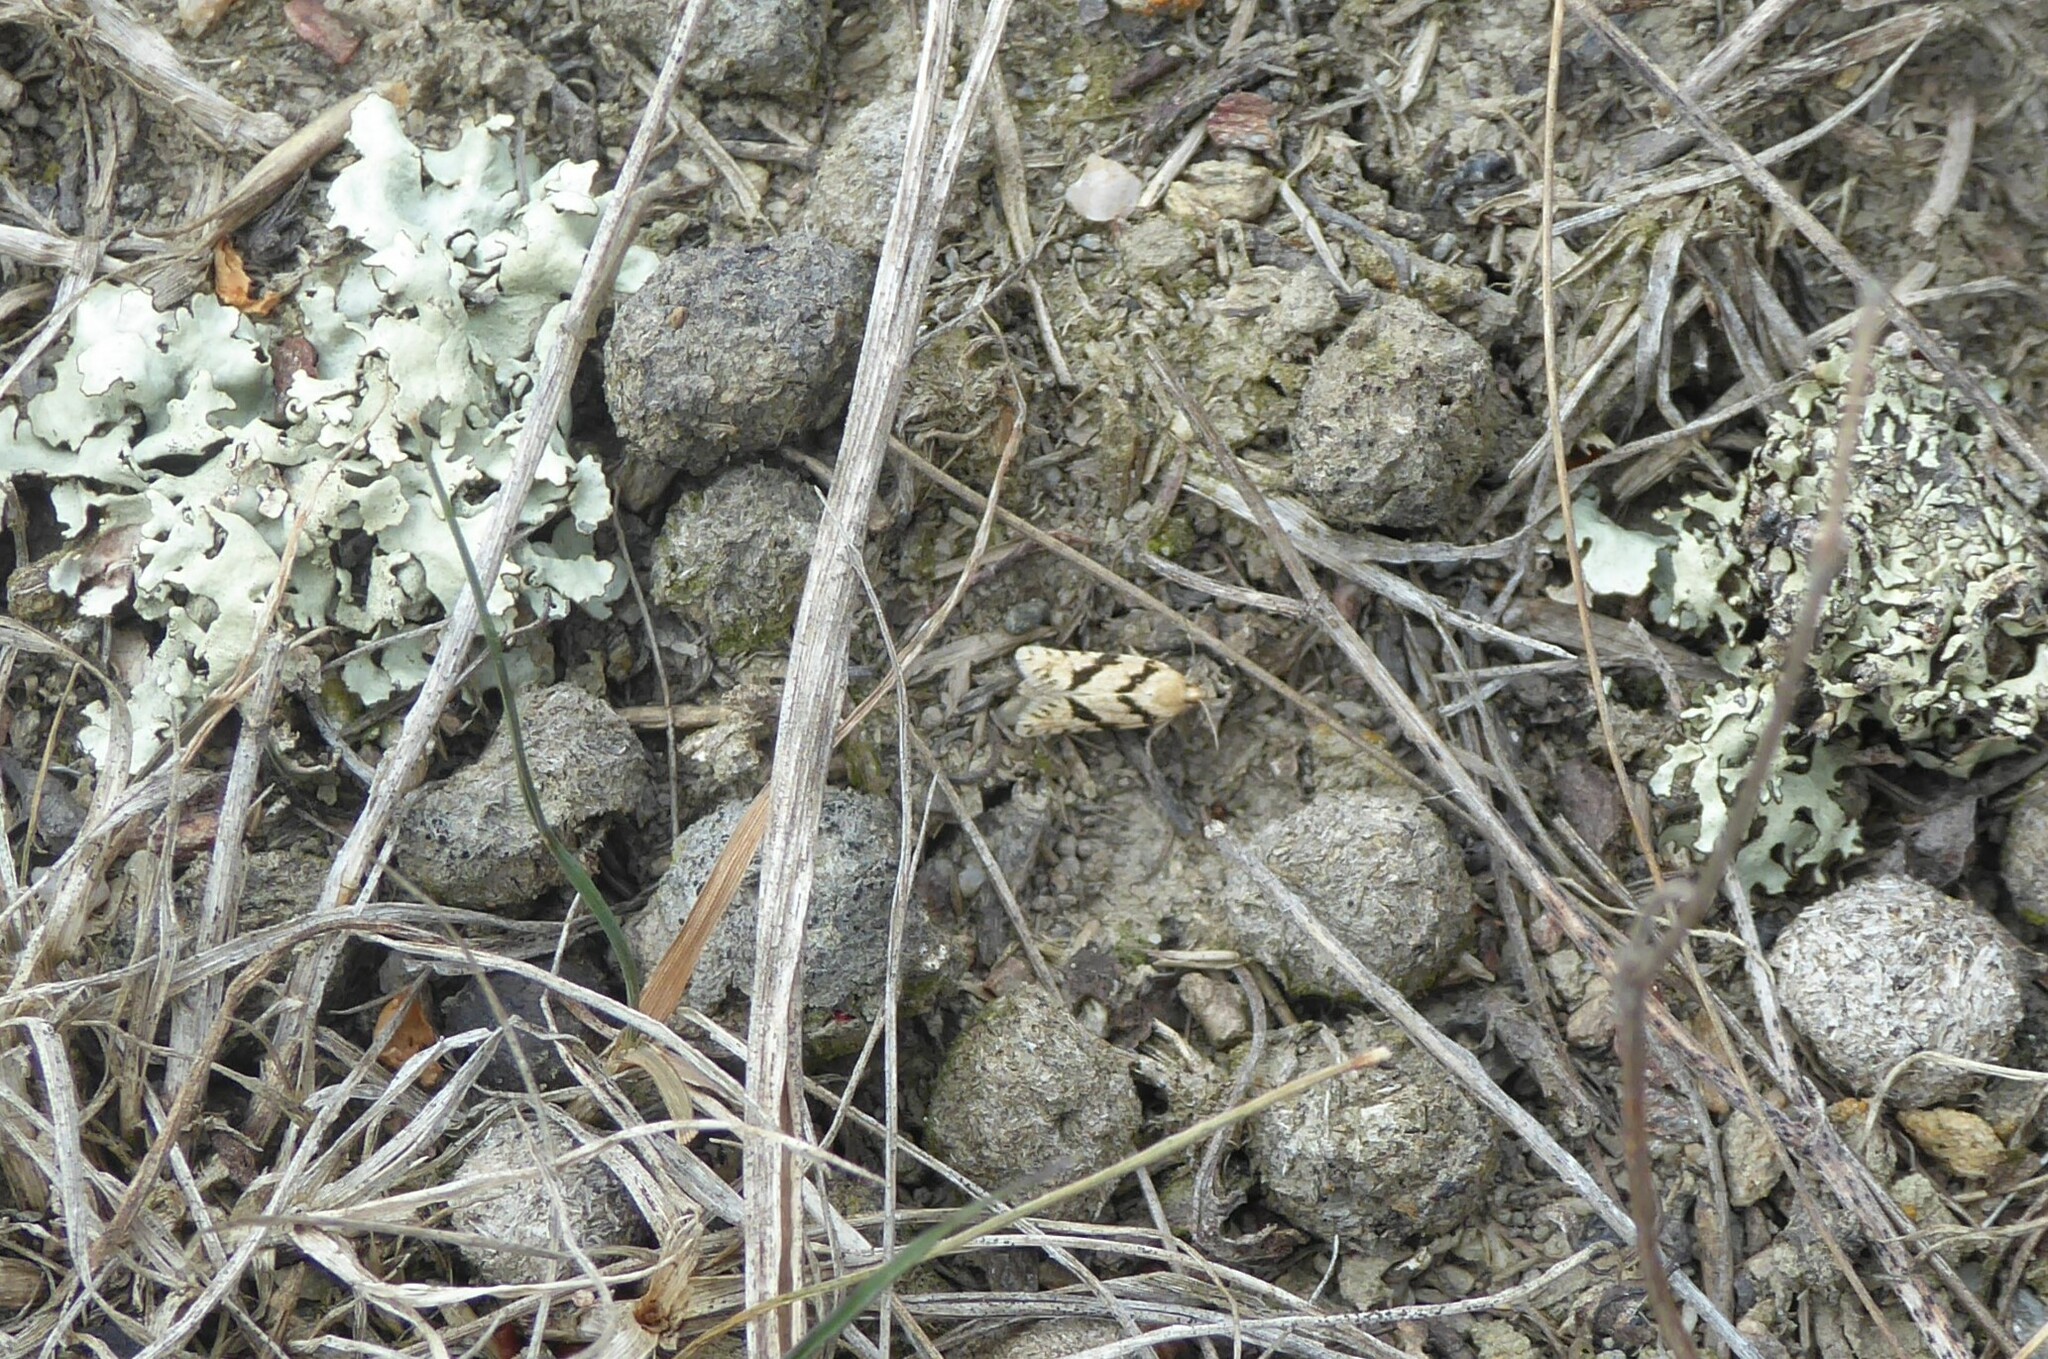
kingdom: Animalia
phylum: Arthropoda
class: Insecta
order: Lepidoptera
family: Tortricidae
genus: Eurythecta
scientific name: Eurythecta zelaea
